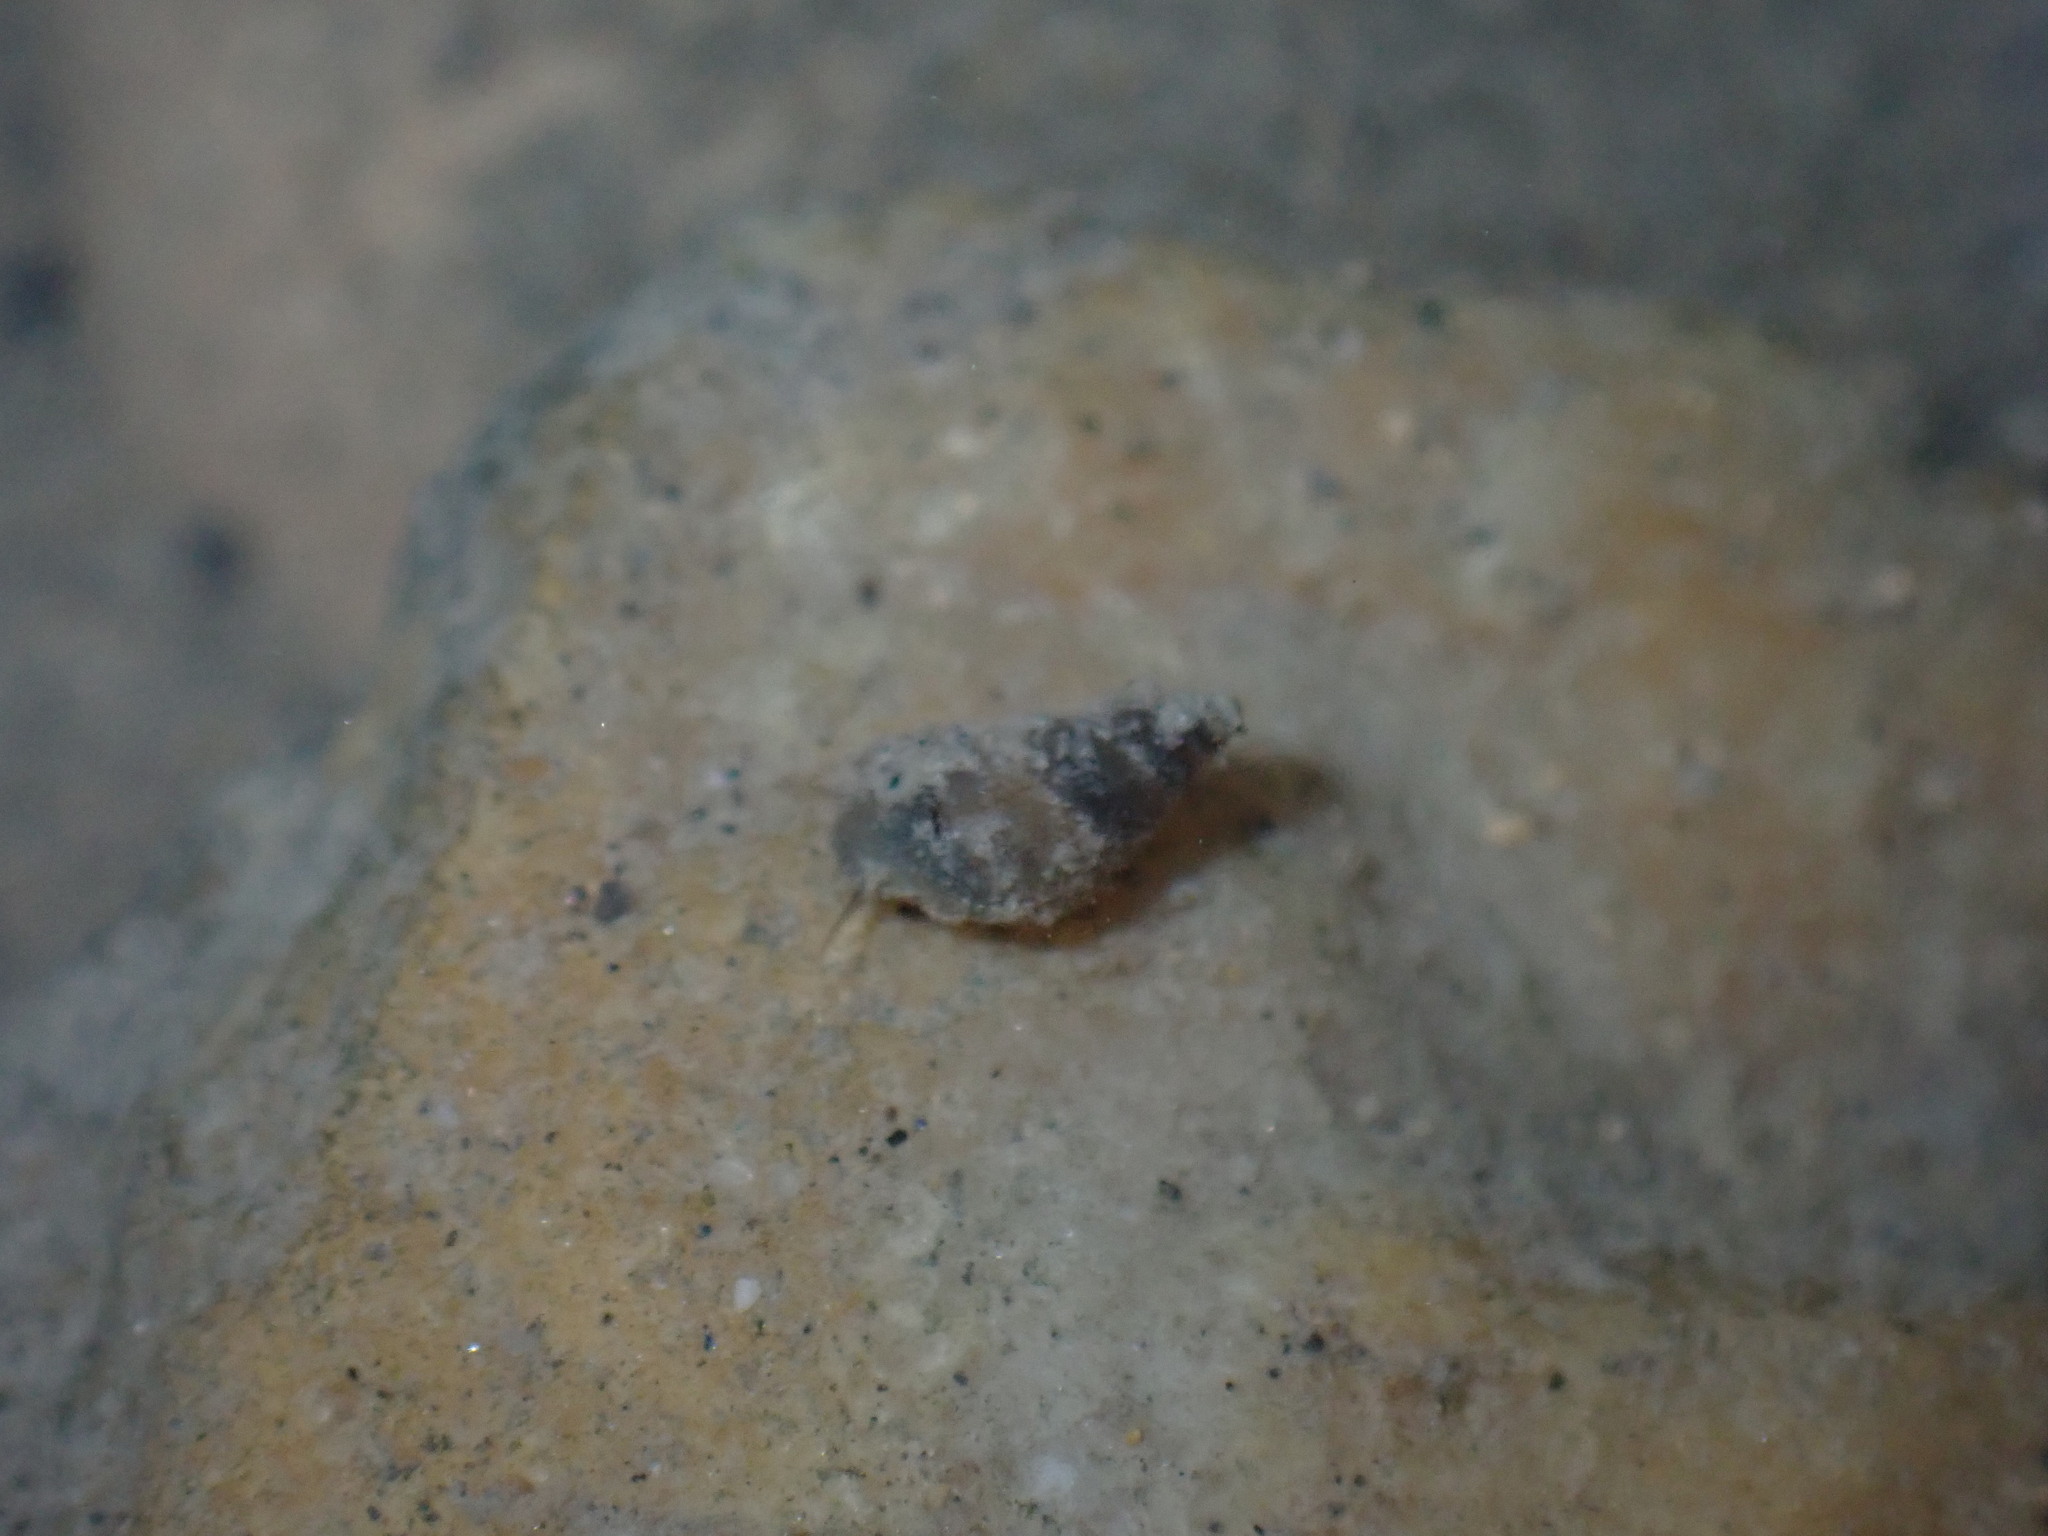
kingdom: Animalia
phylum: Mollusca
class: Gastropoda
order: Littorinimorpha
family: Tateidae
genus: Potamopyrgus
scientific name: Potamopyrgus antipodarum
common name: Jenkins' spire snail
